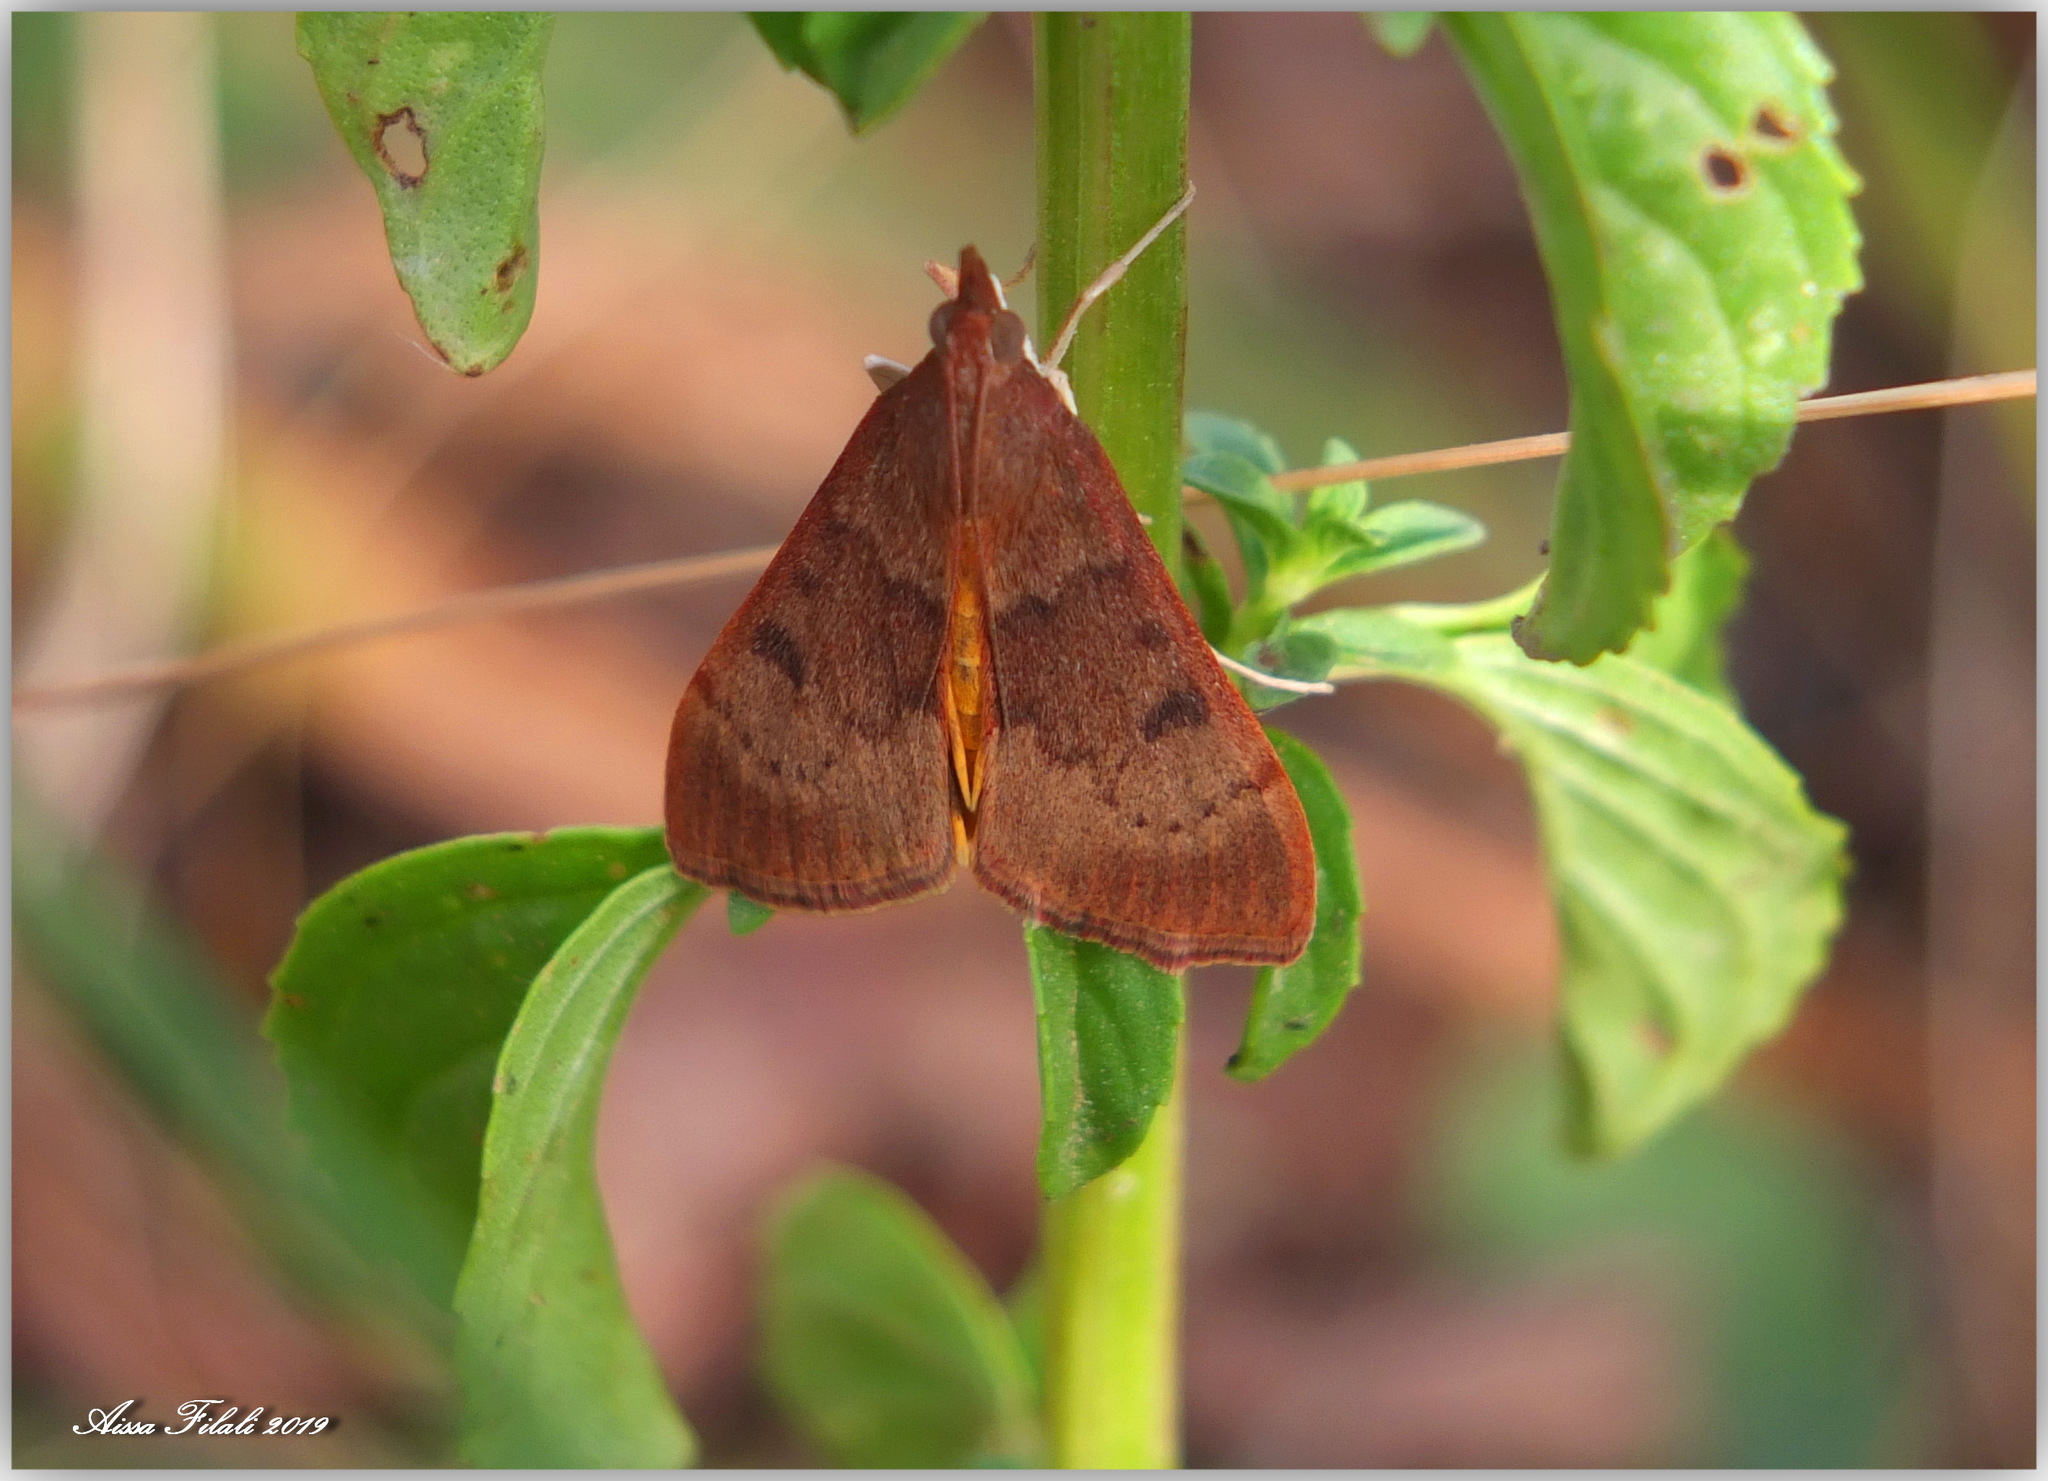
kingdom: Animalia
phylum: Arthropoda
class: Insecta
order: Lepidoptera
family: Crambidae
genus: Uresiphita
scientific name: Uresiphita gilvata
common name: Yellow-underwing pearl
